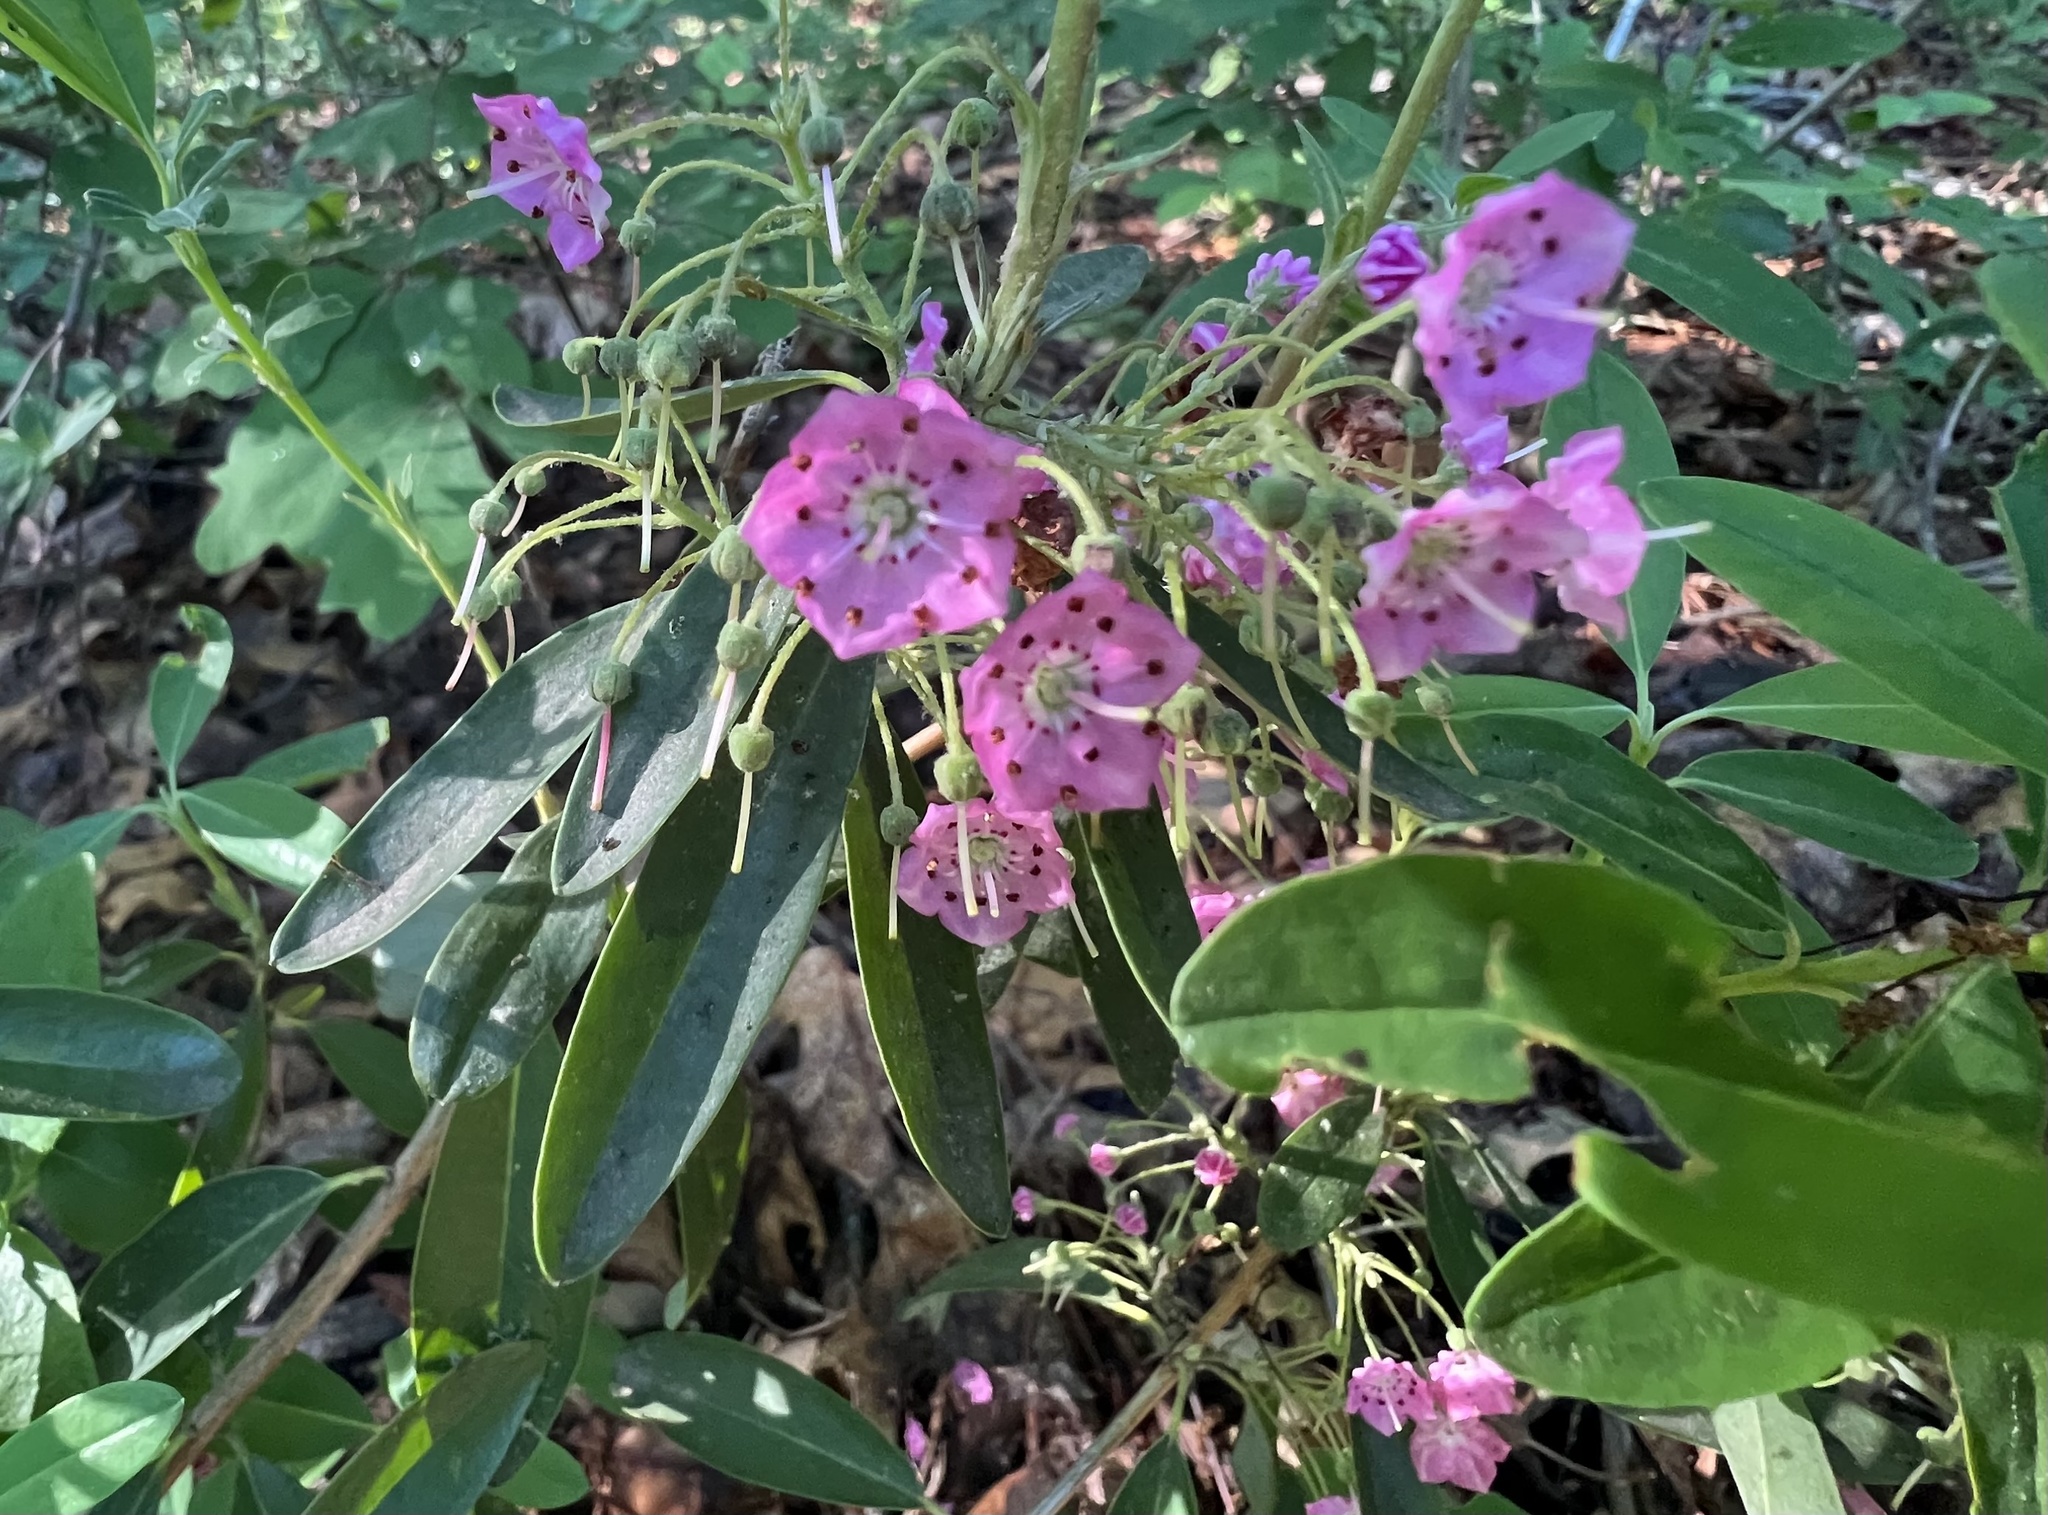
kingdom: Plantae
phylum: Tracheophyta
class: Magnoliopsida
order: Ericales
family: Ericaceae
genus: Kalmia
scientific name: Kalmia angustifolia
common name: Sheep-laurel
